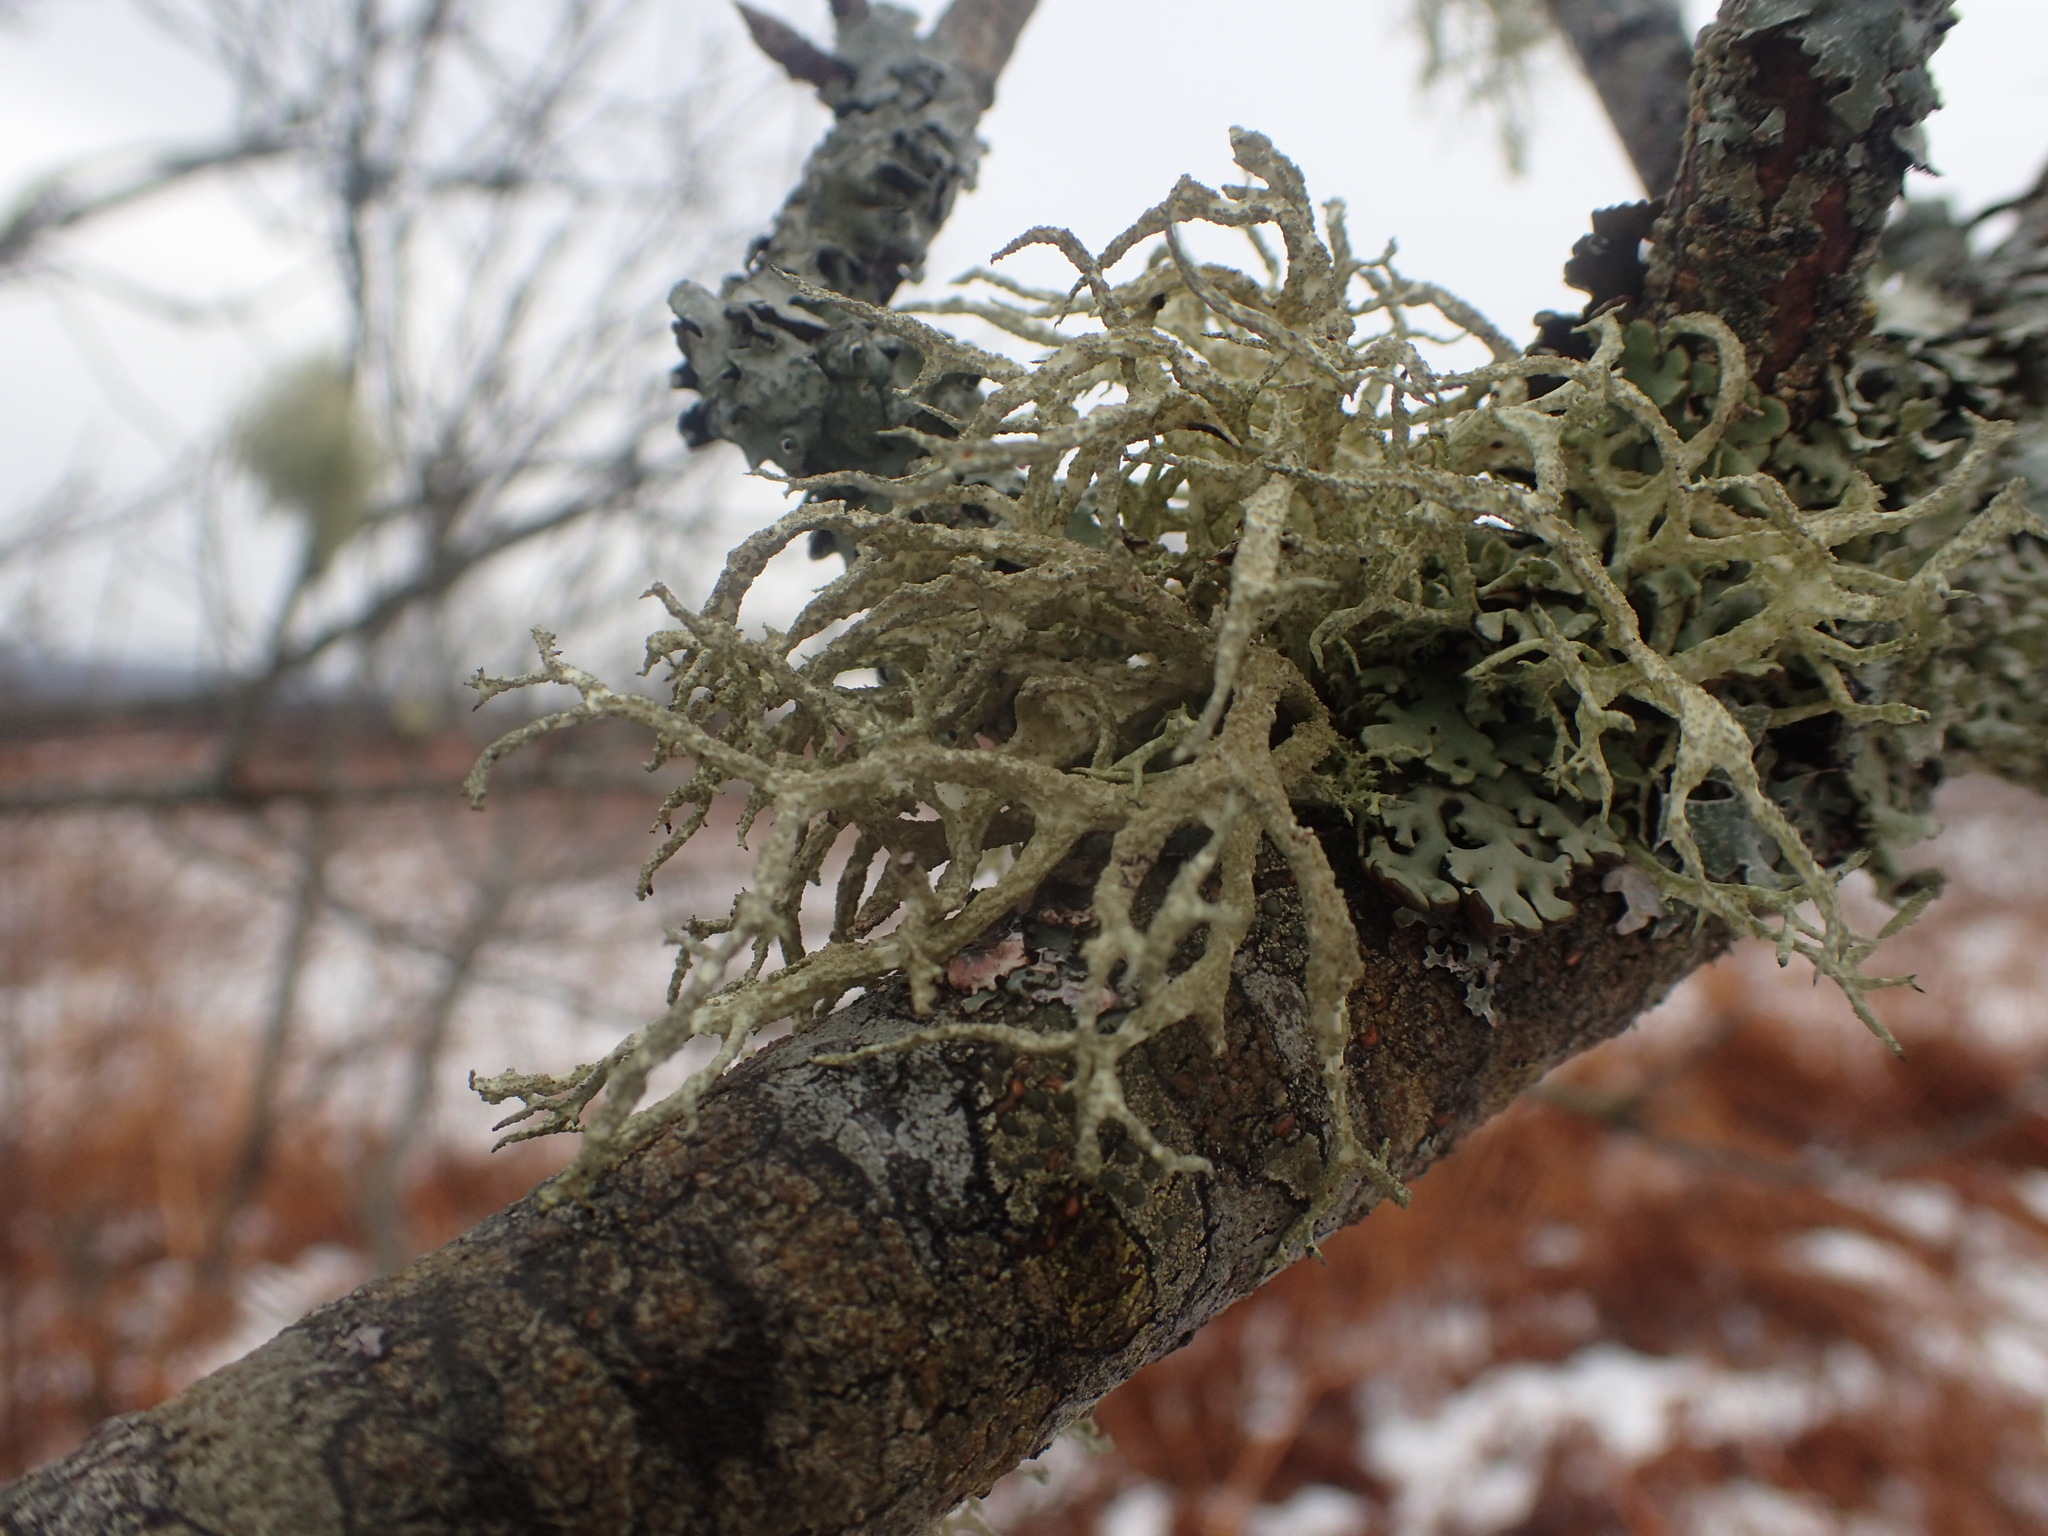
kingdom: Fungi
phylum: Ascomycota
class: Lecanoromycetes
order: Lecanorales
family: Parmeliaceae
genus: Evernia
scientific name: Evernia mesomorpha
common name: Boreal oak moss lichen
